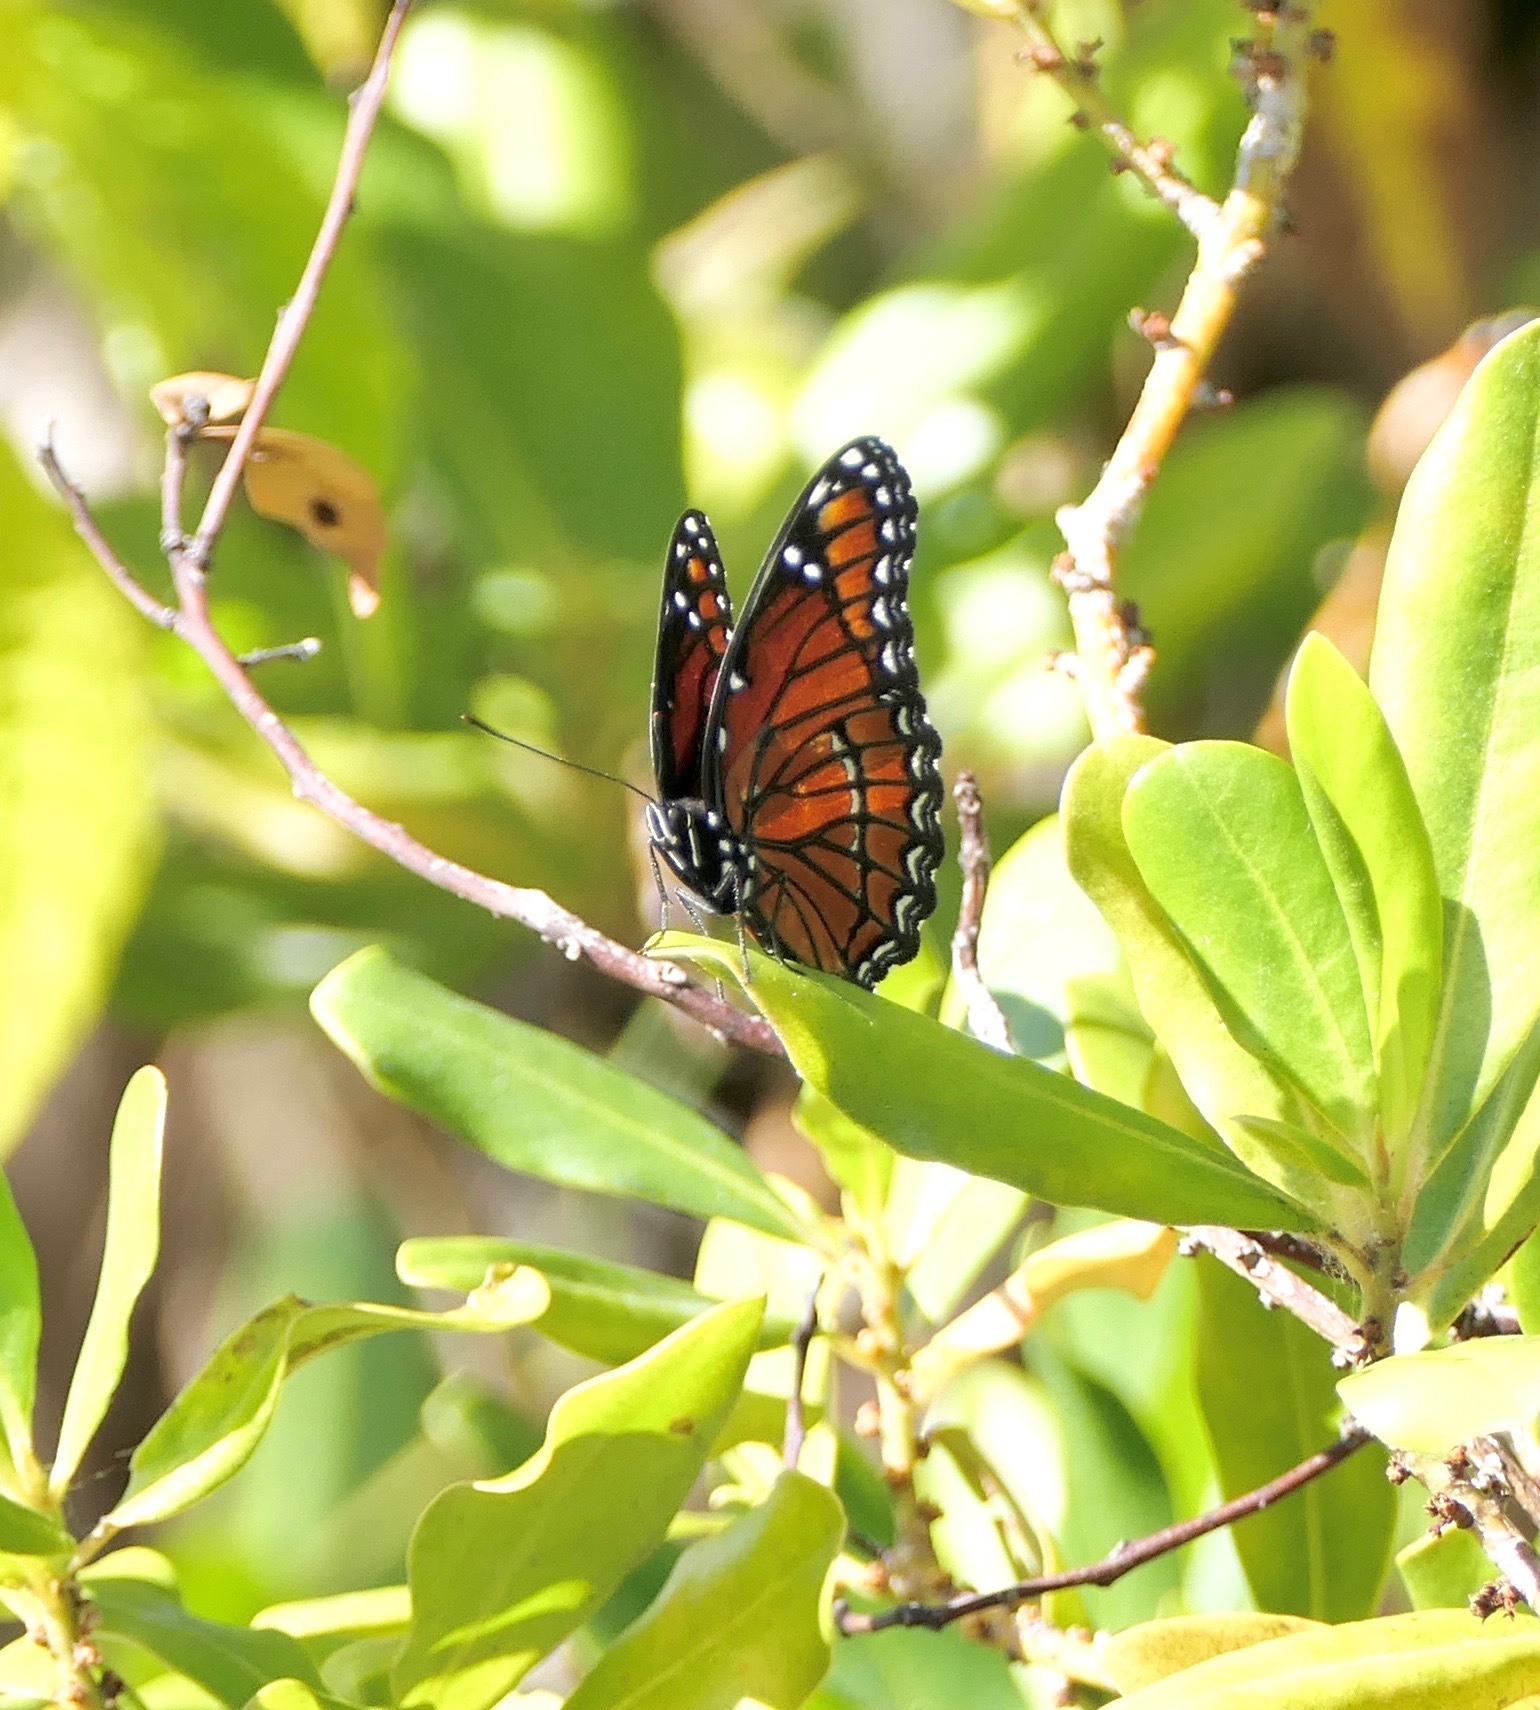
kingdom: Animalia
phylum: Arthropoda
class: Insecta
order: Lepidoptera
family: Nymphalidae
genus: Limenitis
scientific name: Limenitis archippus
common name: Viceroy
